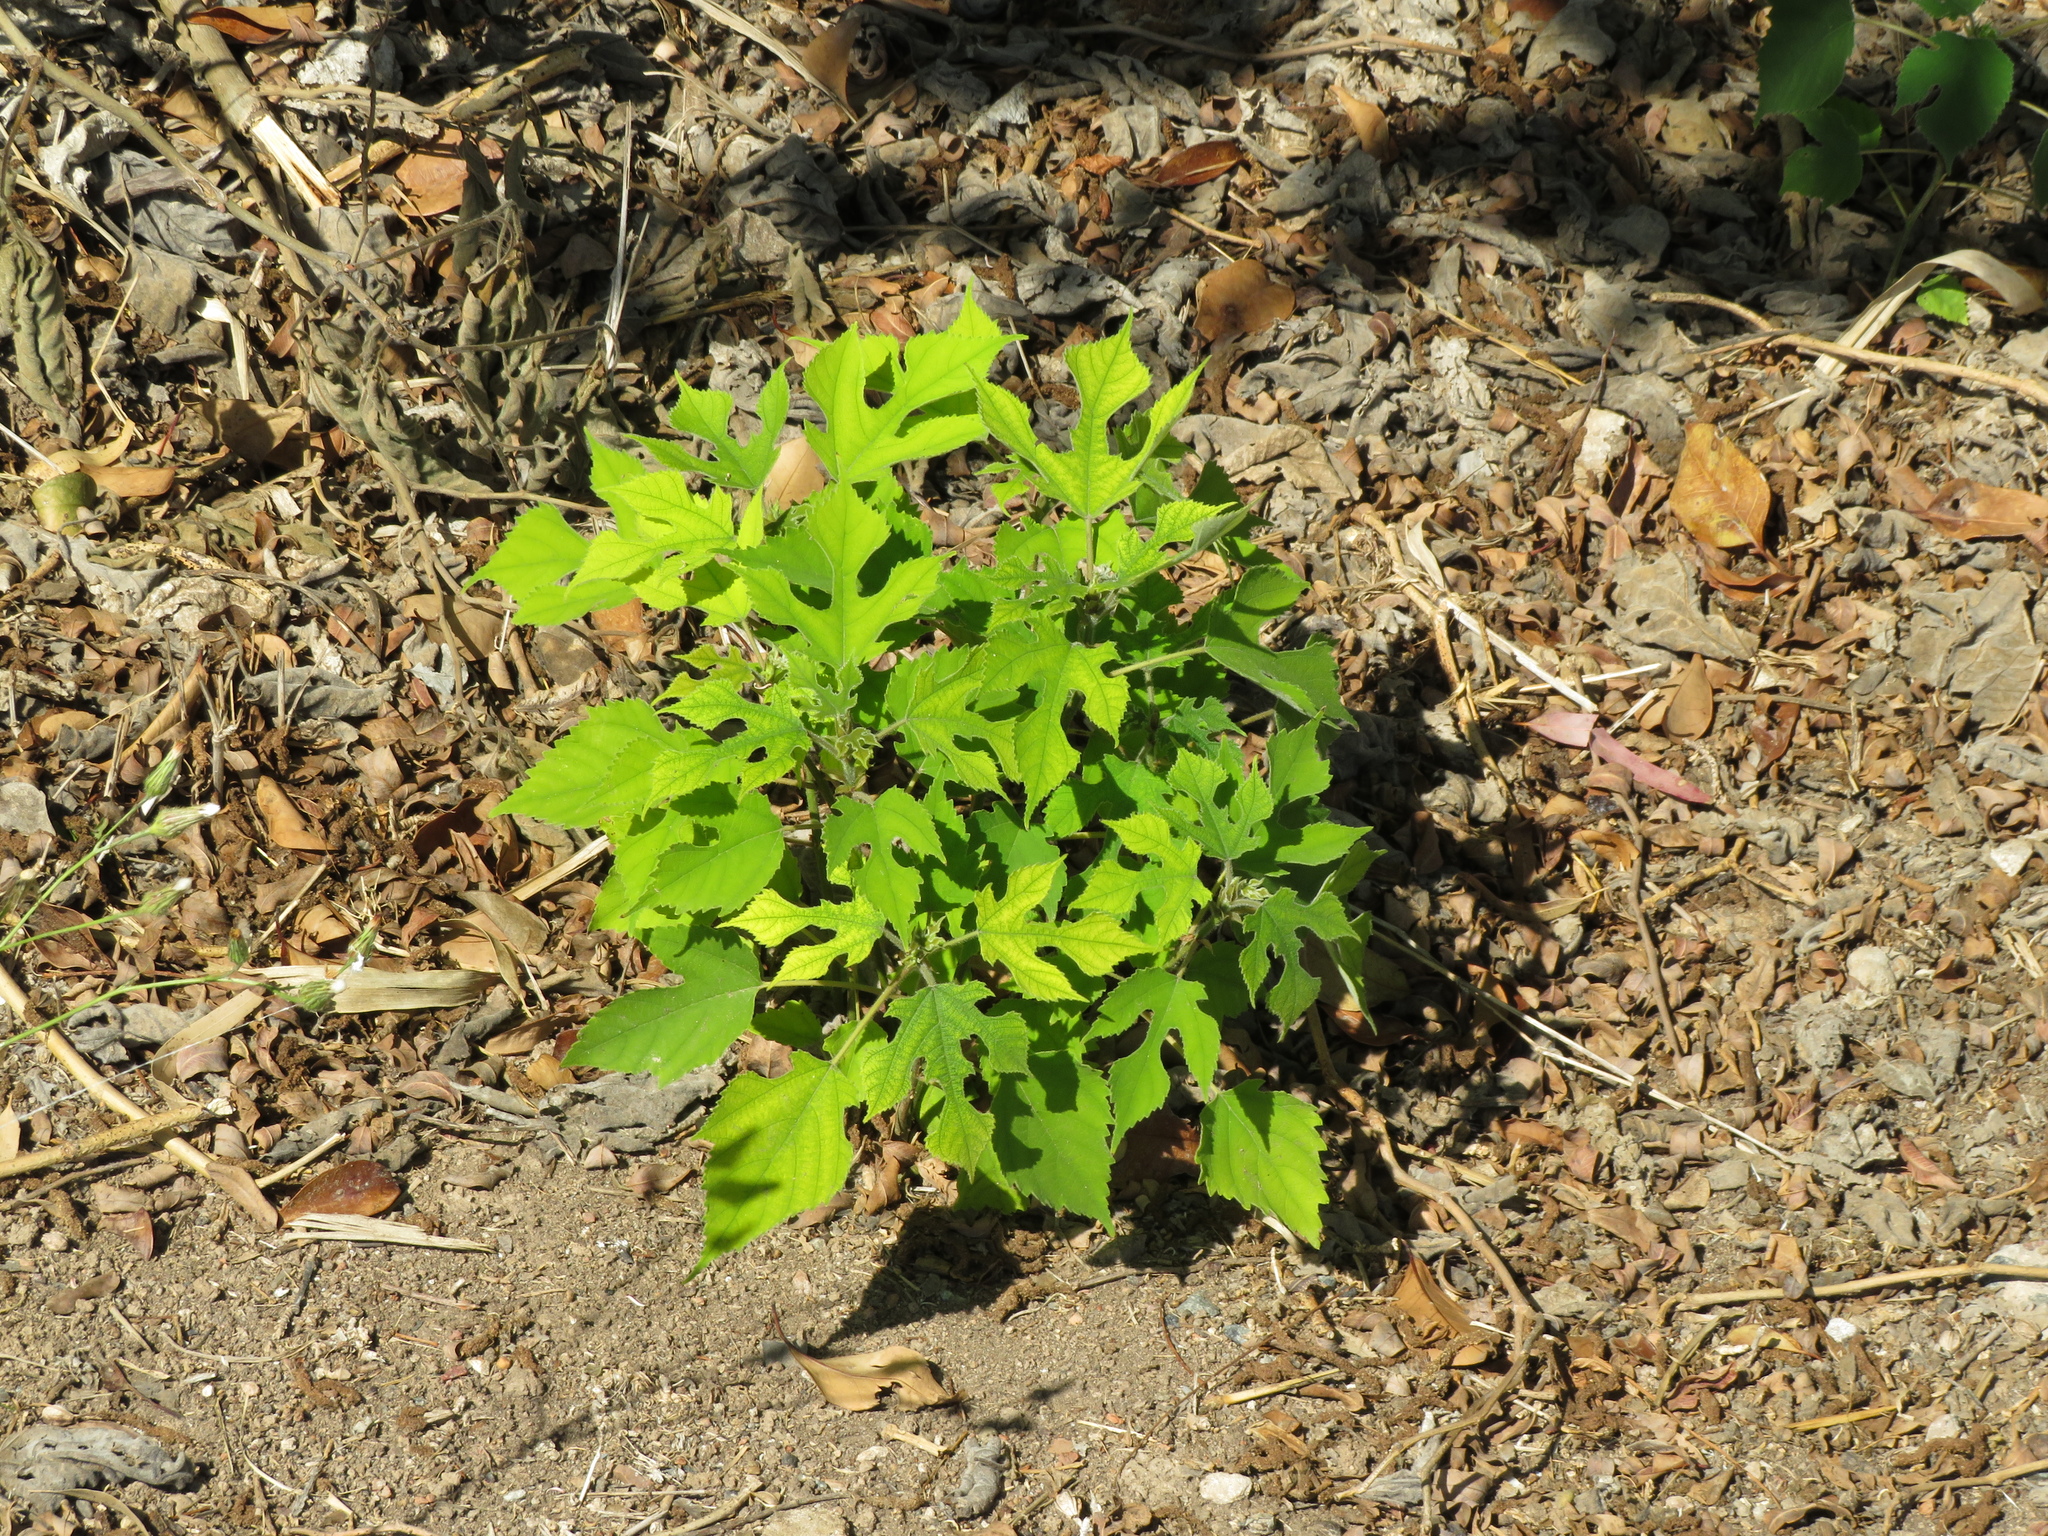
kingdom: Plantae
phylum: Tracheophyta
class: Magnoliopsida
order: Rosales
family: Moraceae
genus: Broussonetia
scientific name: Broussonetia papyrifera
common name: Paper mulberry
